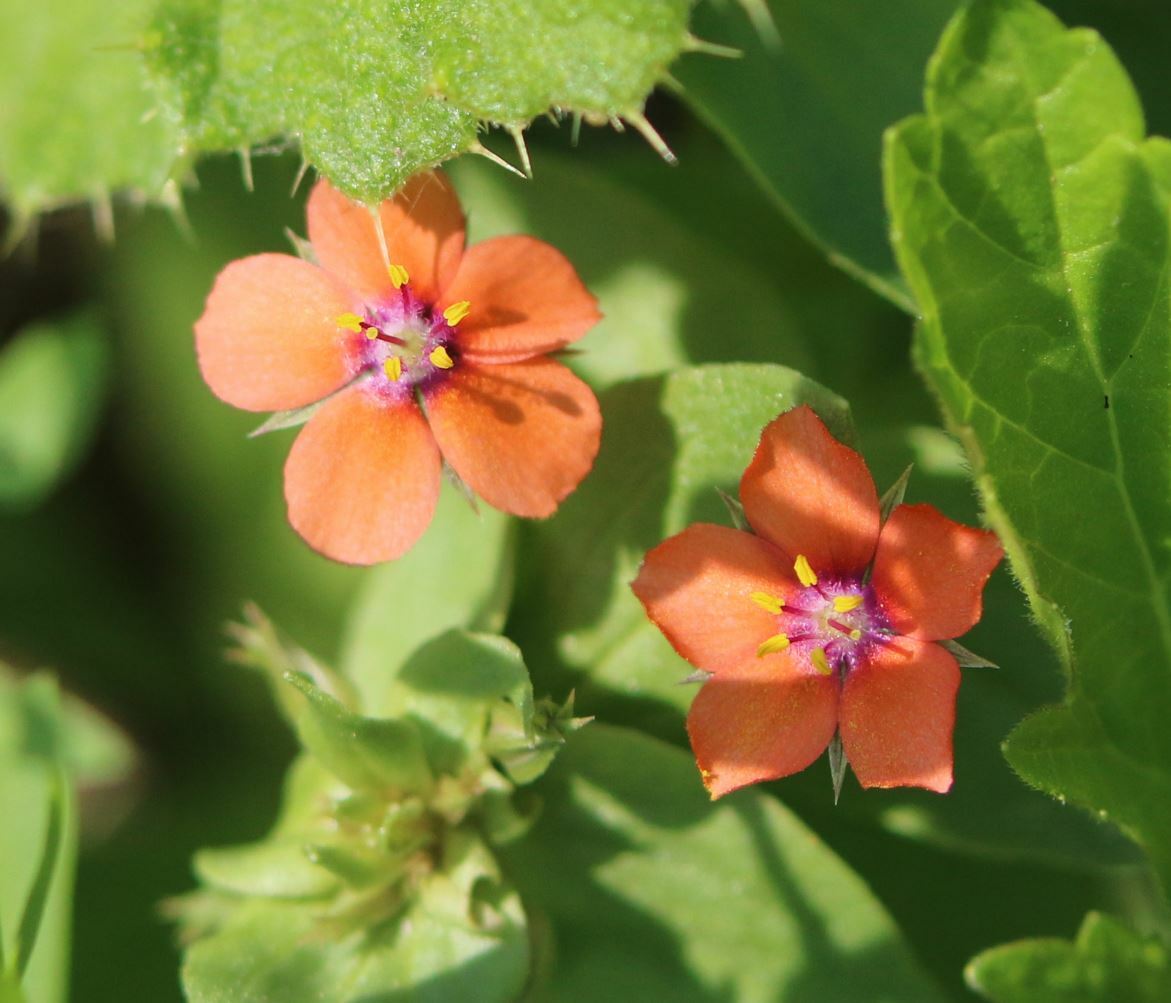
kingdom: Plantae
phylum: Tracheophyta
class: Magnoliopsida
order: Ericales
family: Primulaceae
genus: Lysimachia
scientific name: Lysimachia arvensis
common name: Scarlet pimpernel
